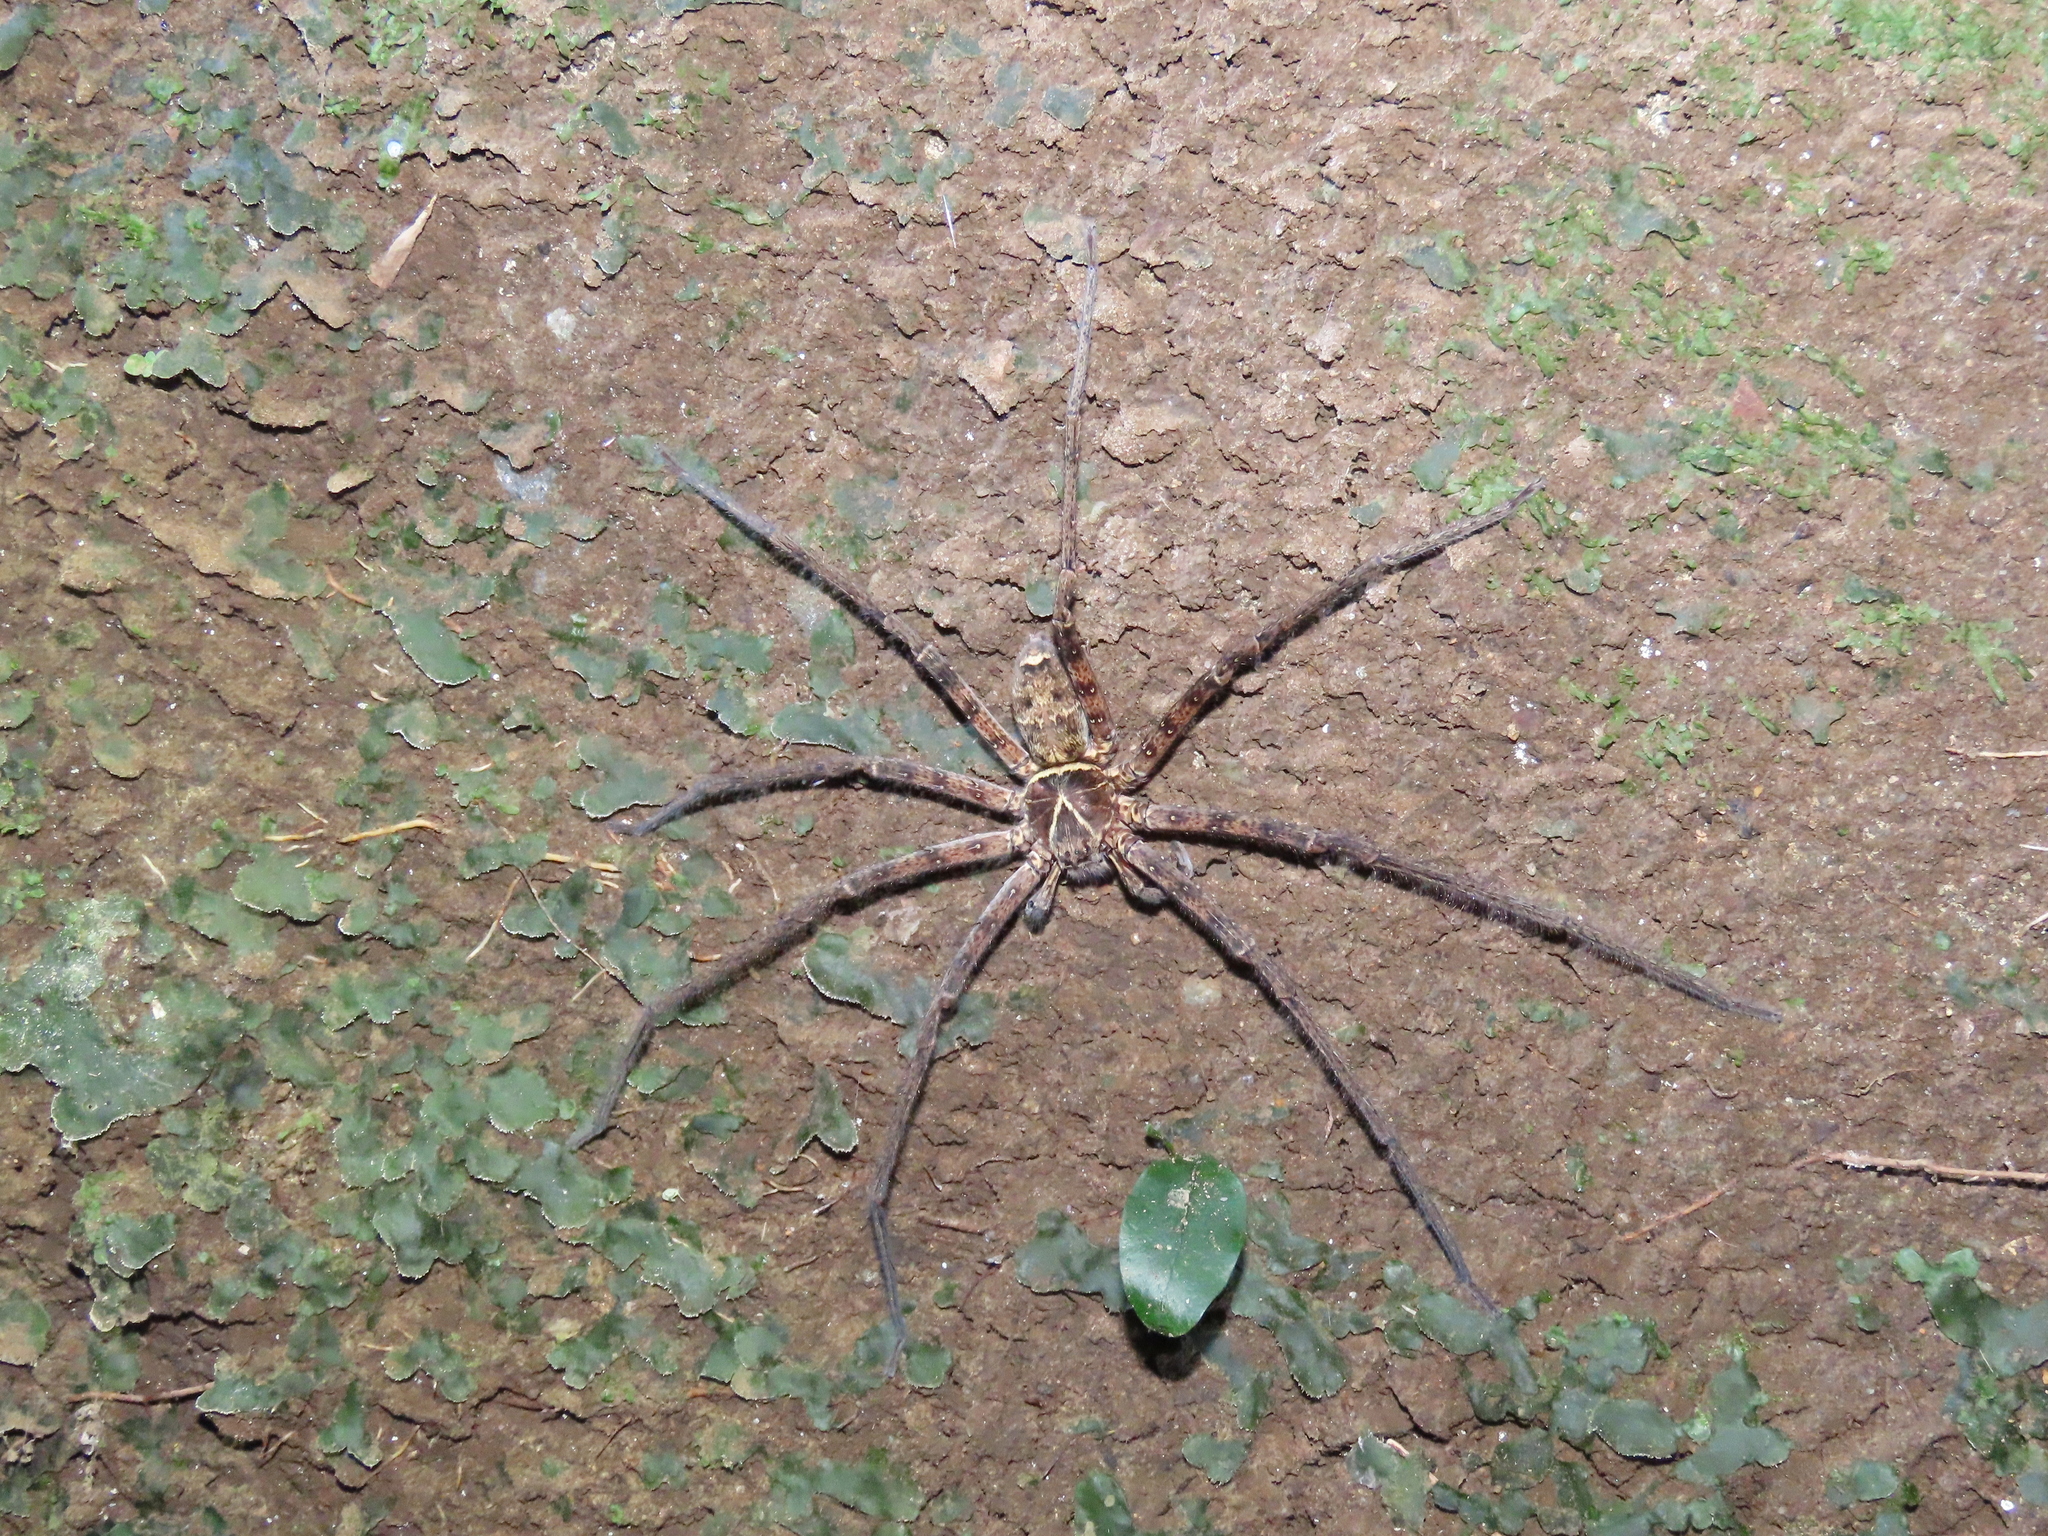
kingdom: Animalia
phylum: Arthropoda
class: Arachnida
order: Araneae
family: Sparassidae
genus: Heteropoda
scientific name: Heteropoda venatoria
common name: Huntsman spider
